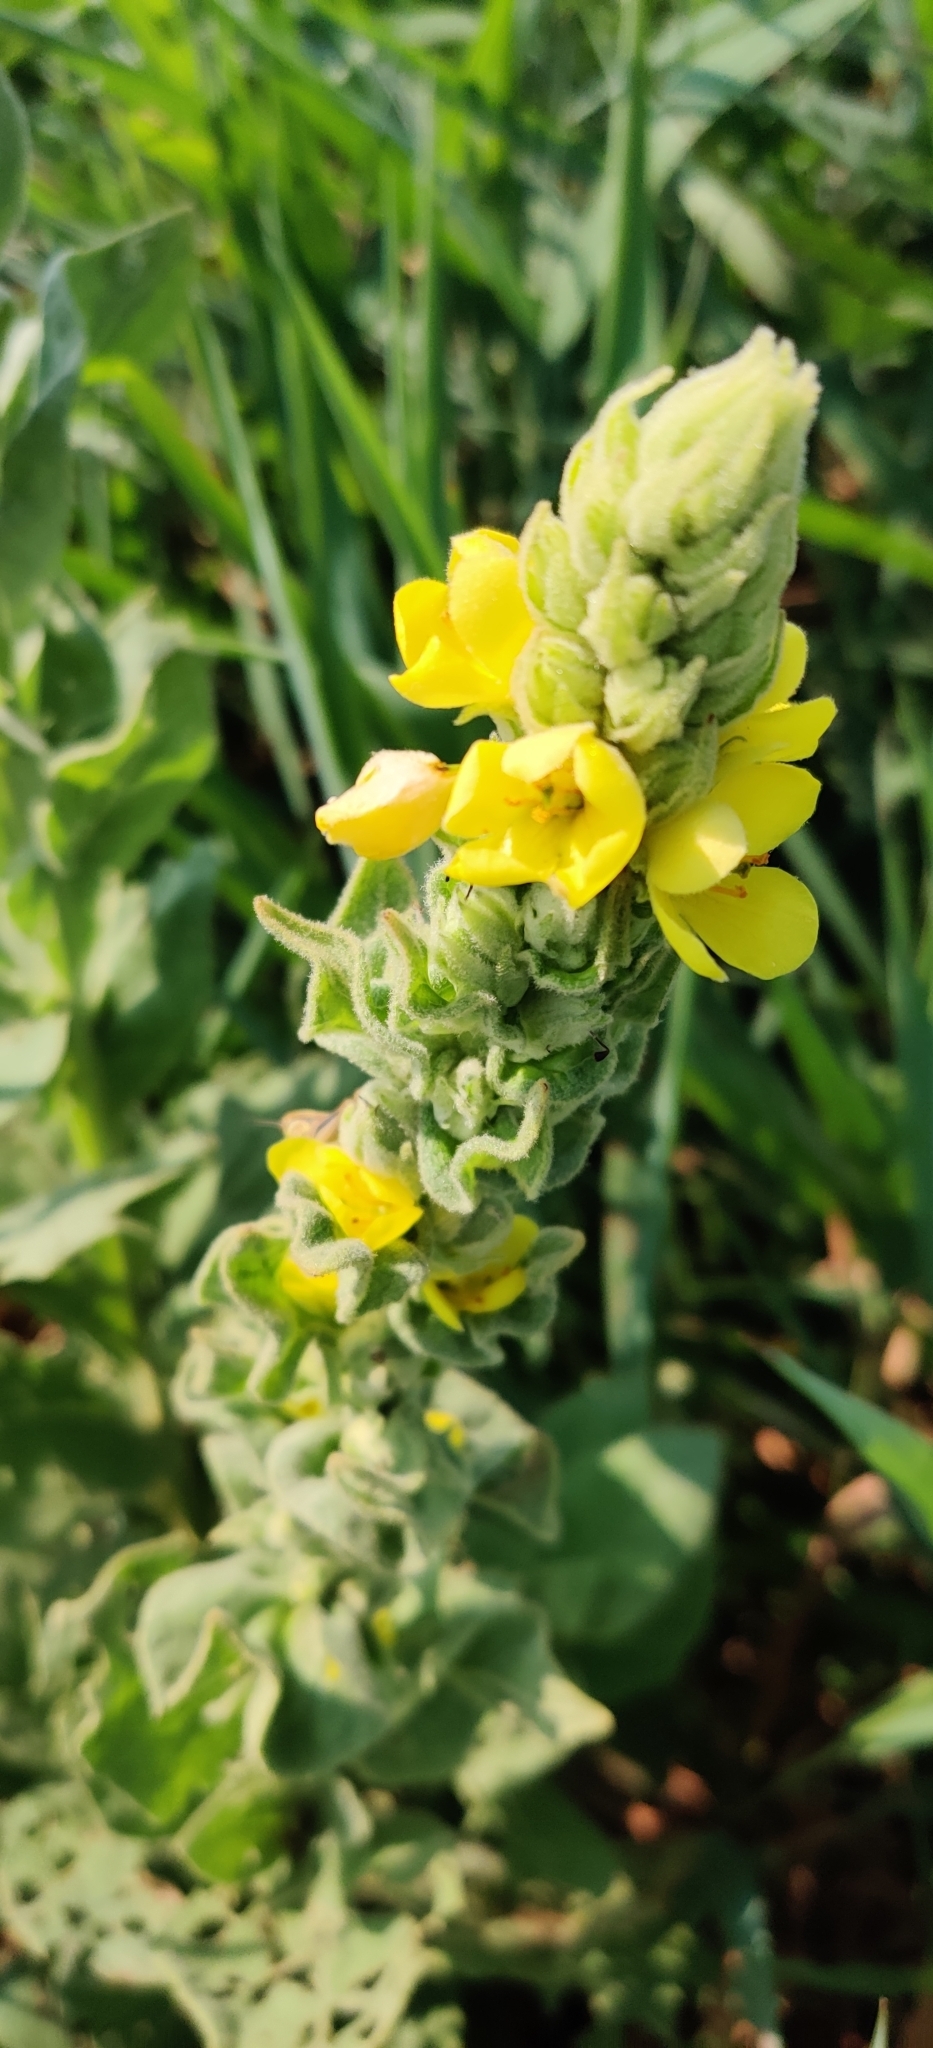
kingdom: Plantae
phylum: Tracheophyta
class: Magnoliopsida
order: Lamiales
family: Scrophulariaceae
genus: Verbascum
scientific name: Verbascum thapsus
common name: Common mullein
